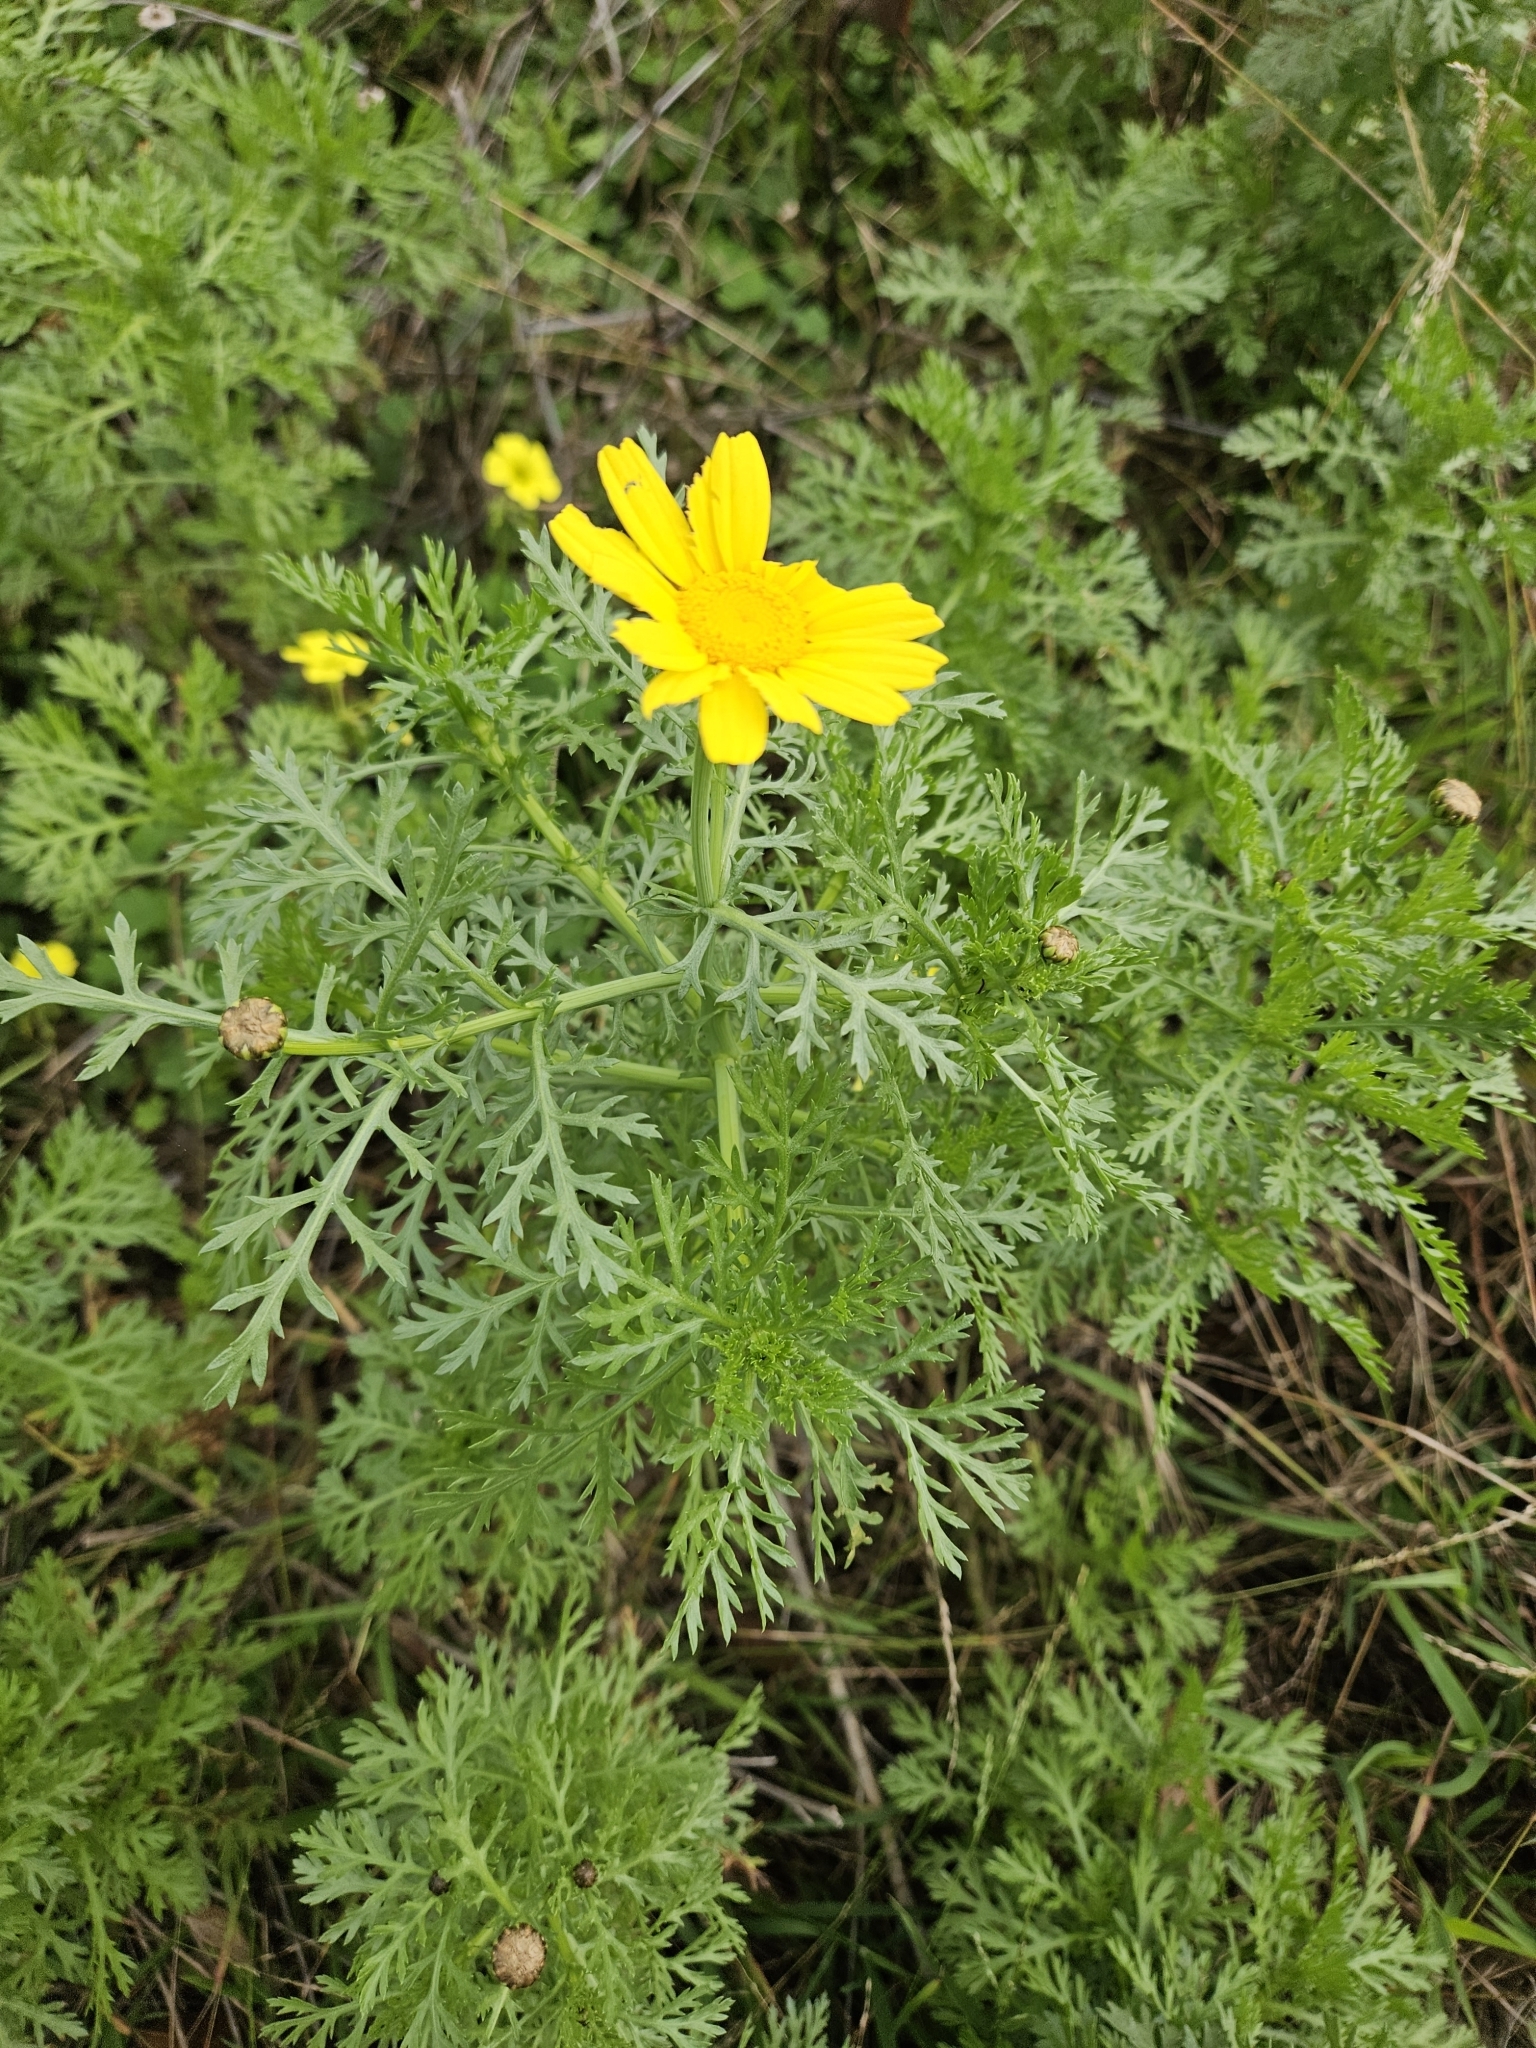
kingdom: Plantae
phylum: Tracheophyta
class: Magnoliopsida
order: Asterales
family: Asteraceae
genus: Glebionis
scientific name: Glebionis coronaria
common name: Crowndaisy
